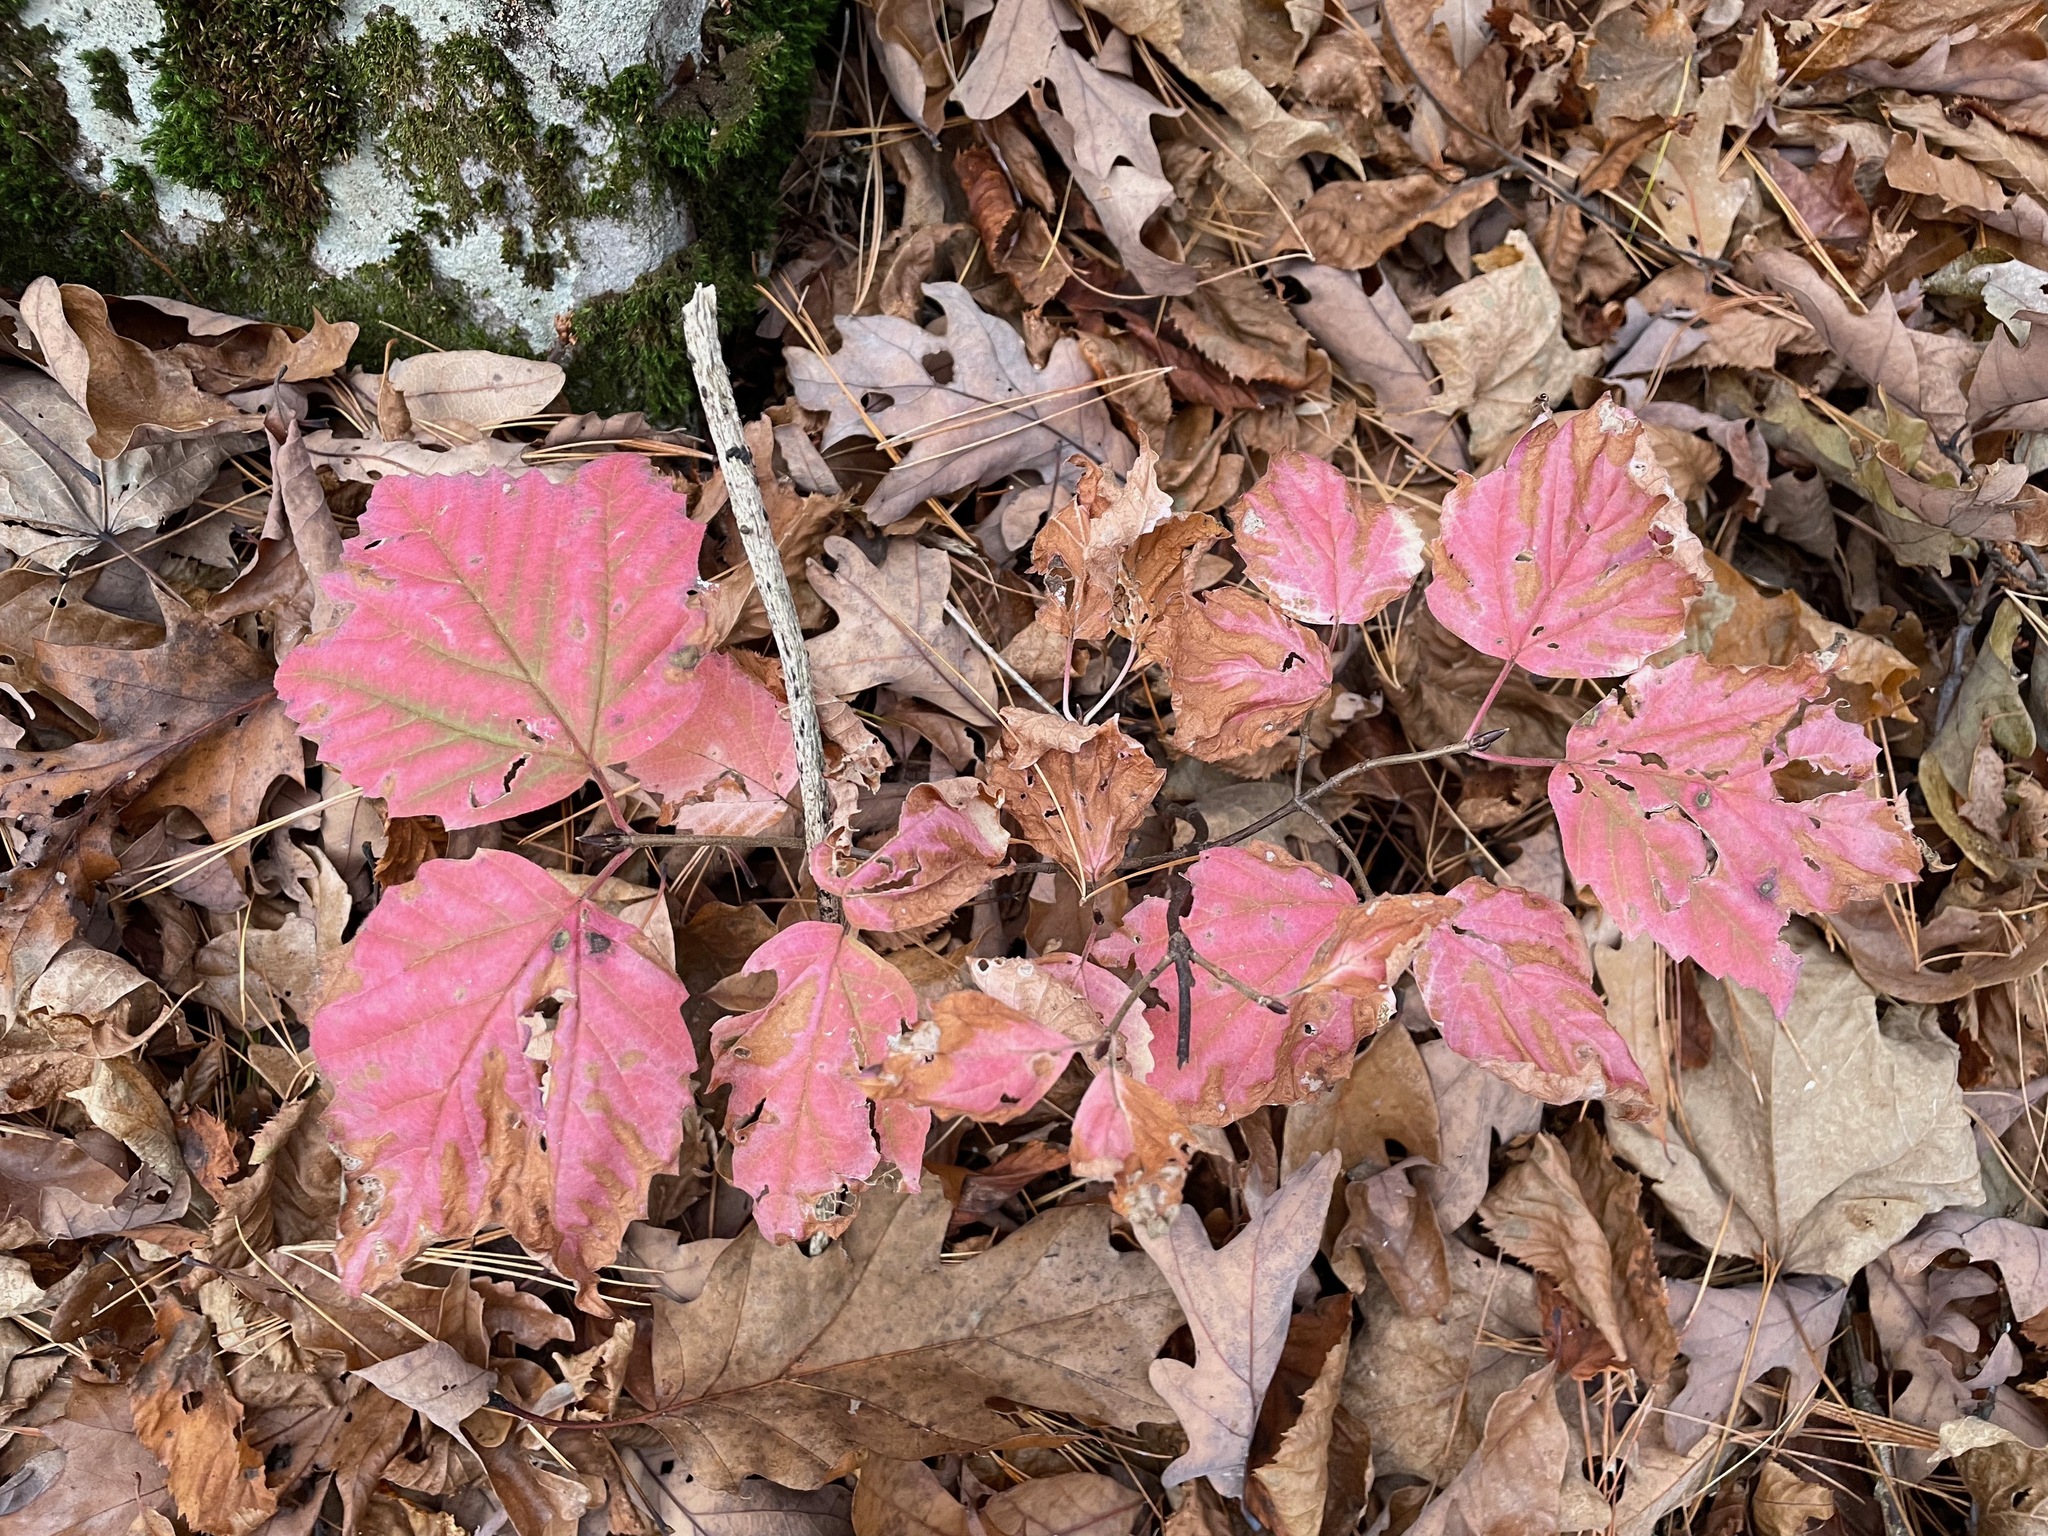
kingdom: Plantae
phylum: Tracheophyta
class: Magnoliopsida
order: Dipsacales
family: Viburnaceae
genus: Viburnum
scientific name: Viburnum acerifolium
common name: Dockmackie
